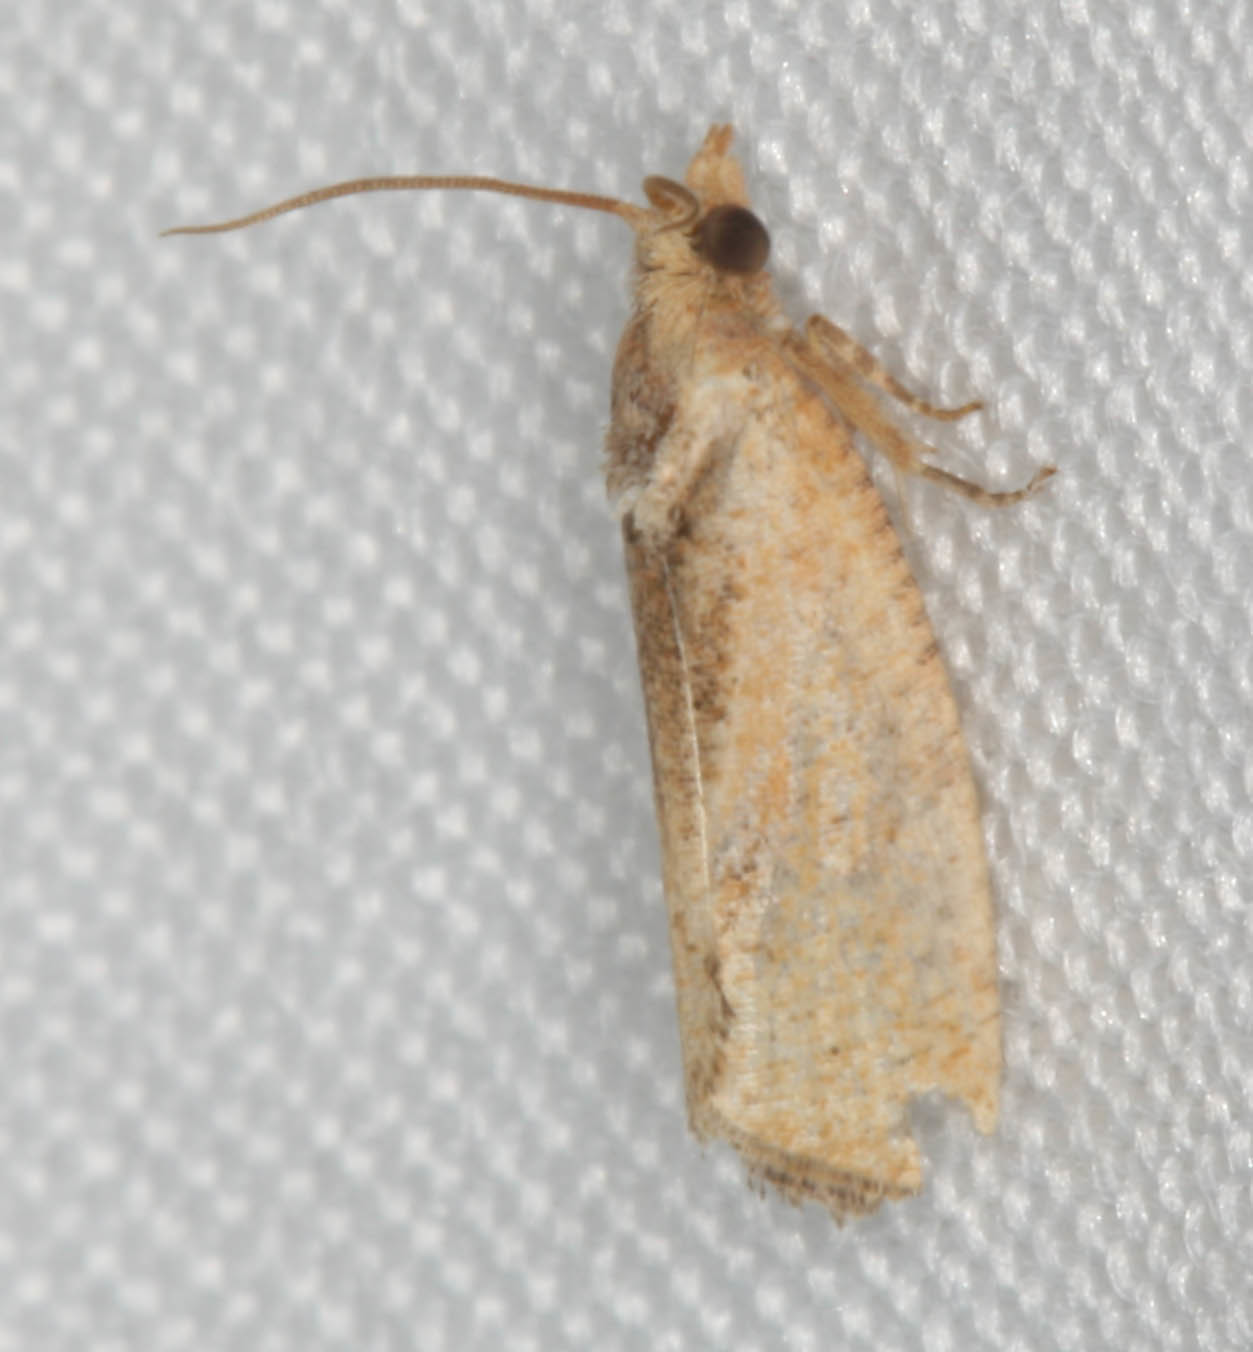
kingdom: Animalia
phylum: Arthropoda
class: Insecta
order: Lepidoptera
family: Tortricidae
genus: Cryptophlebia
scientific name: Cryptophlebia illepida
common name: Moth
